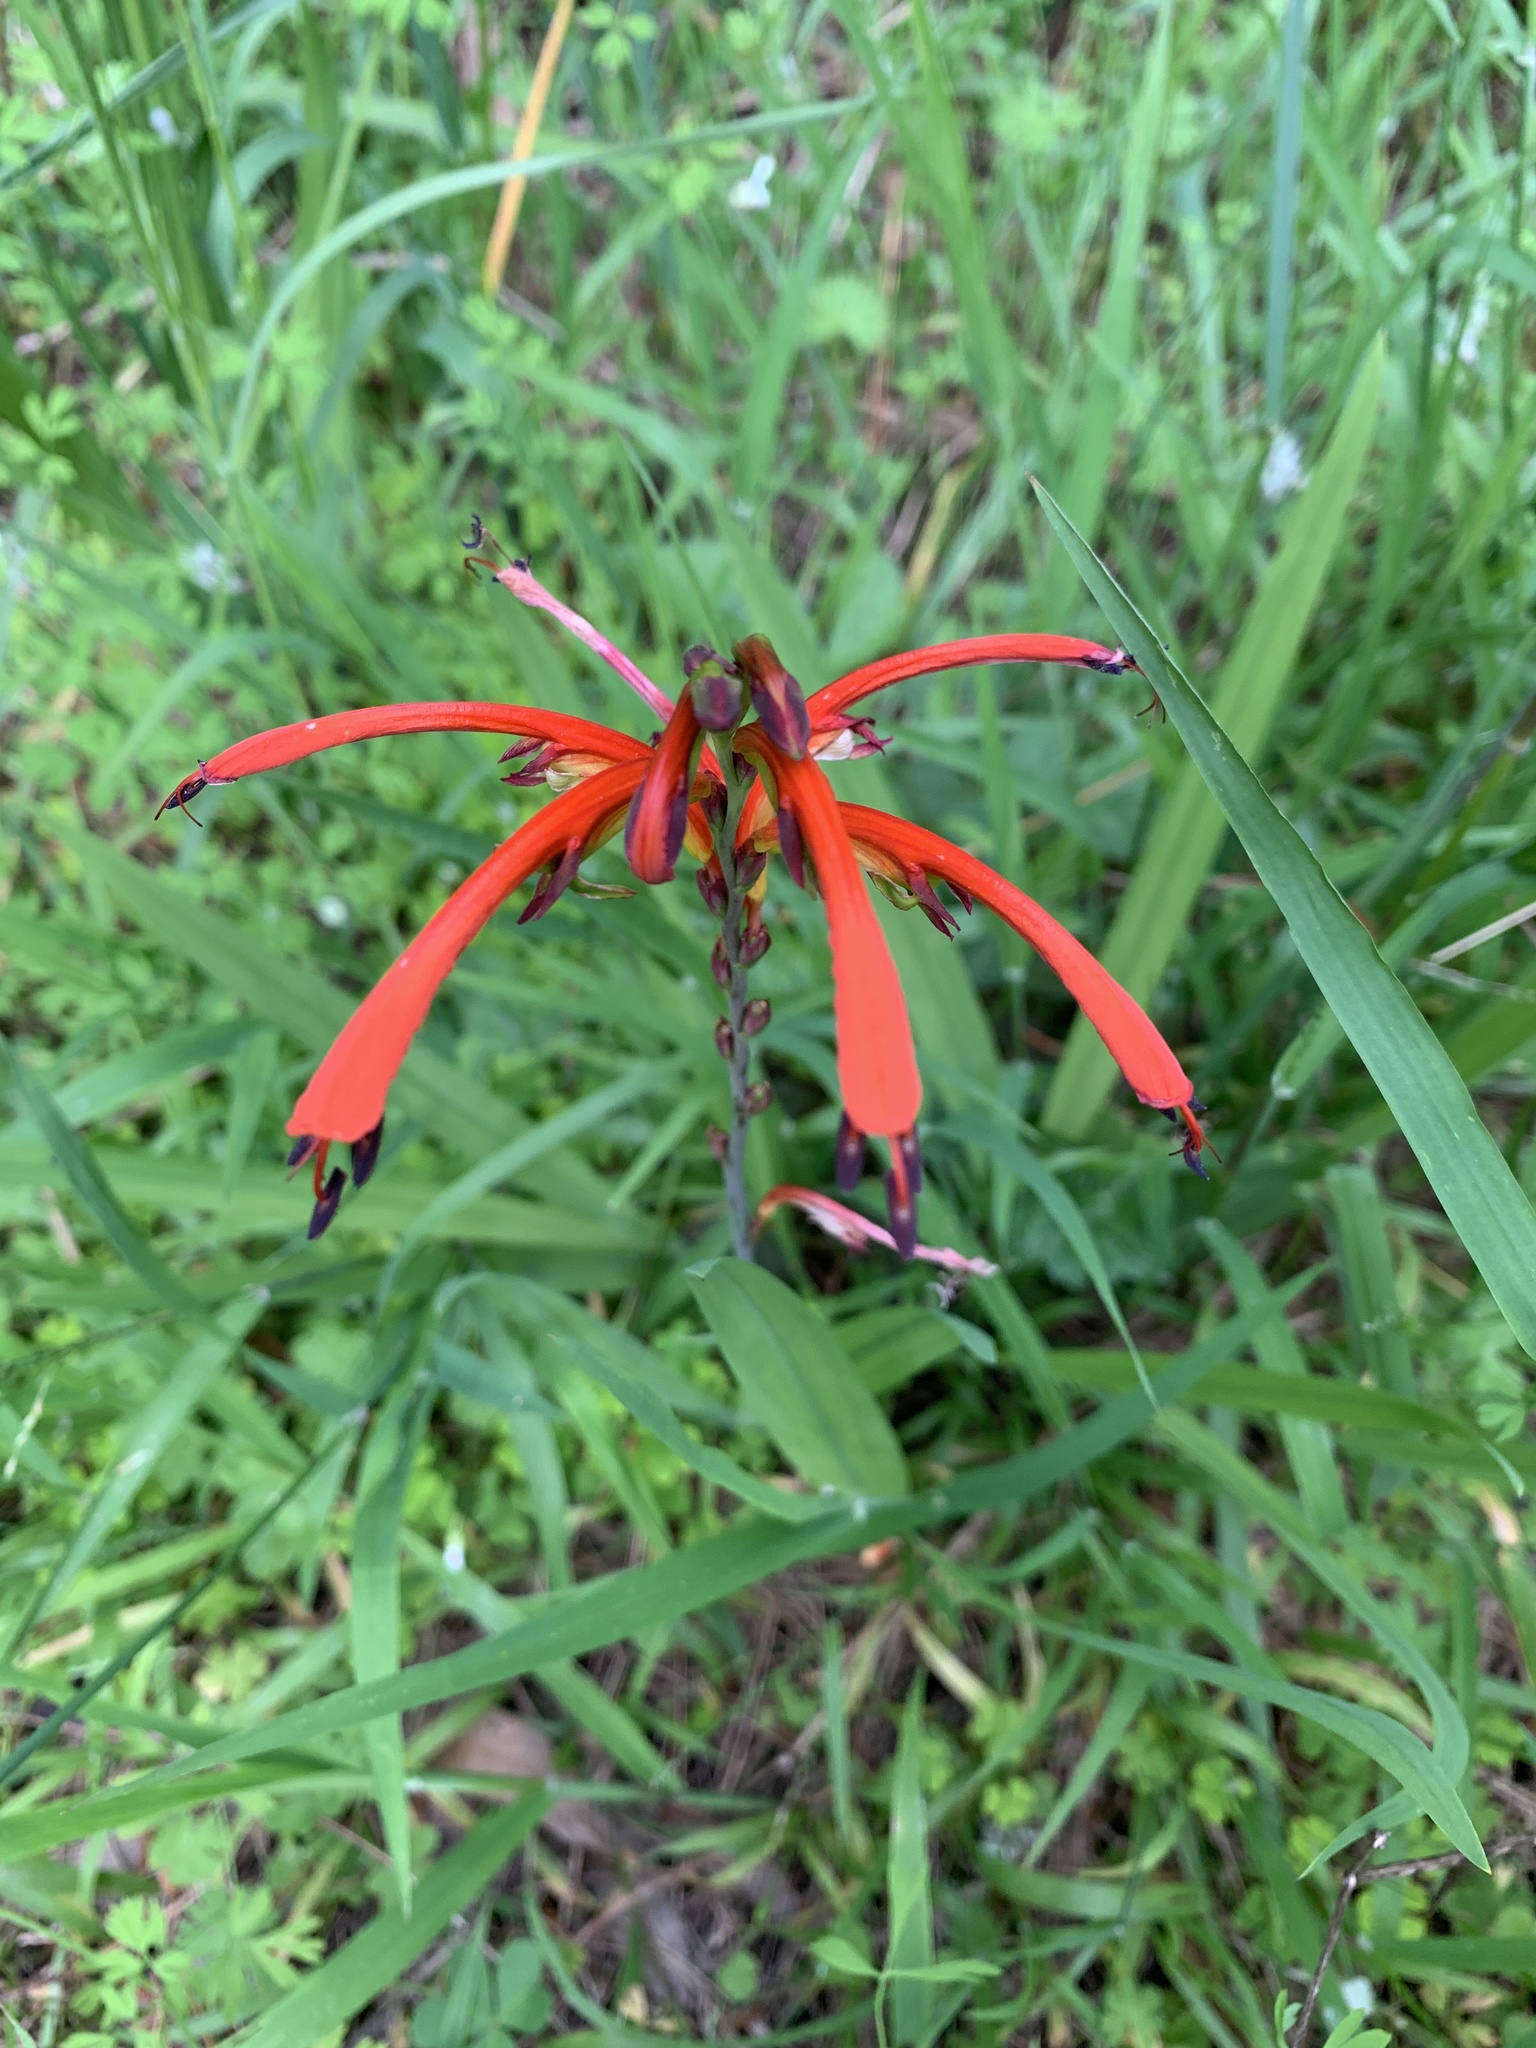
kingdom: Plantae
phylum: Tracheophyta
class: Liliopsida
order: Asparagales
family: Iridaceae
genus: Chasmanthe
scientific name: Chasmanthe bicolor
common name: Bicolor cobra lily
